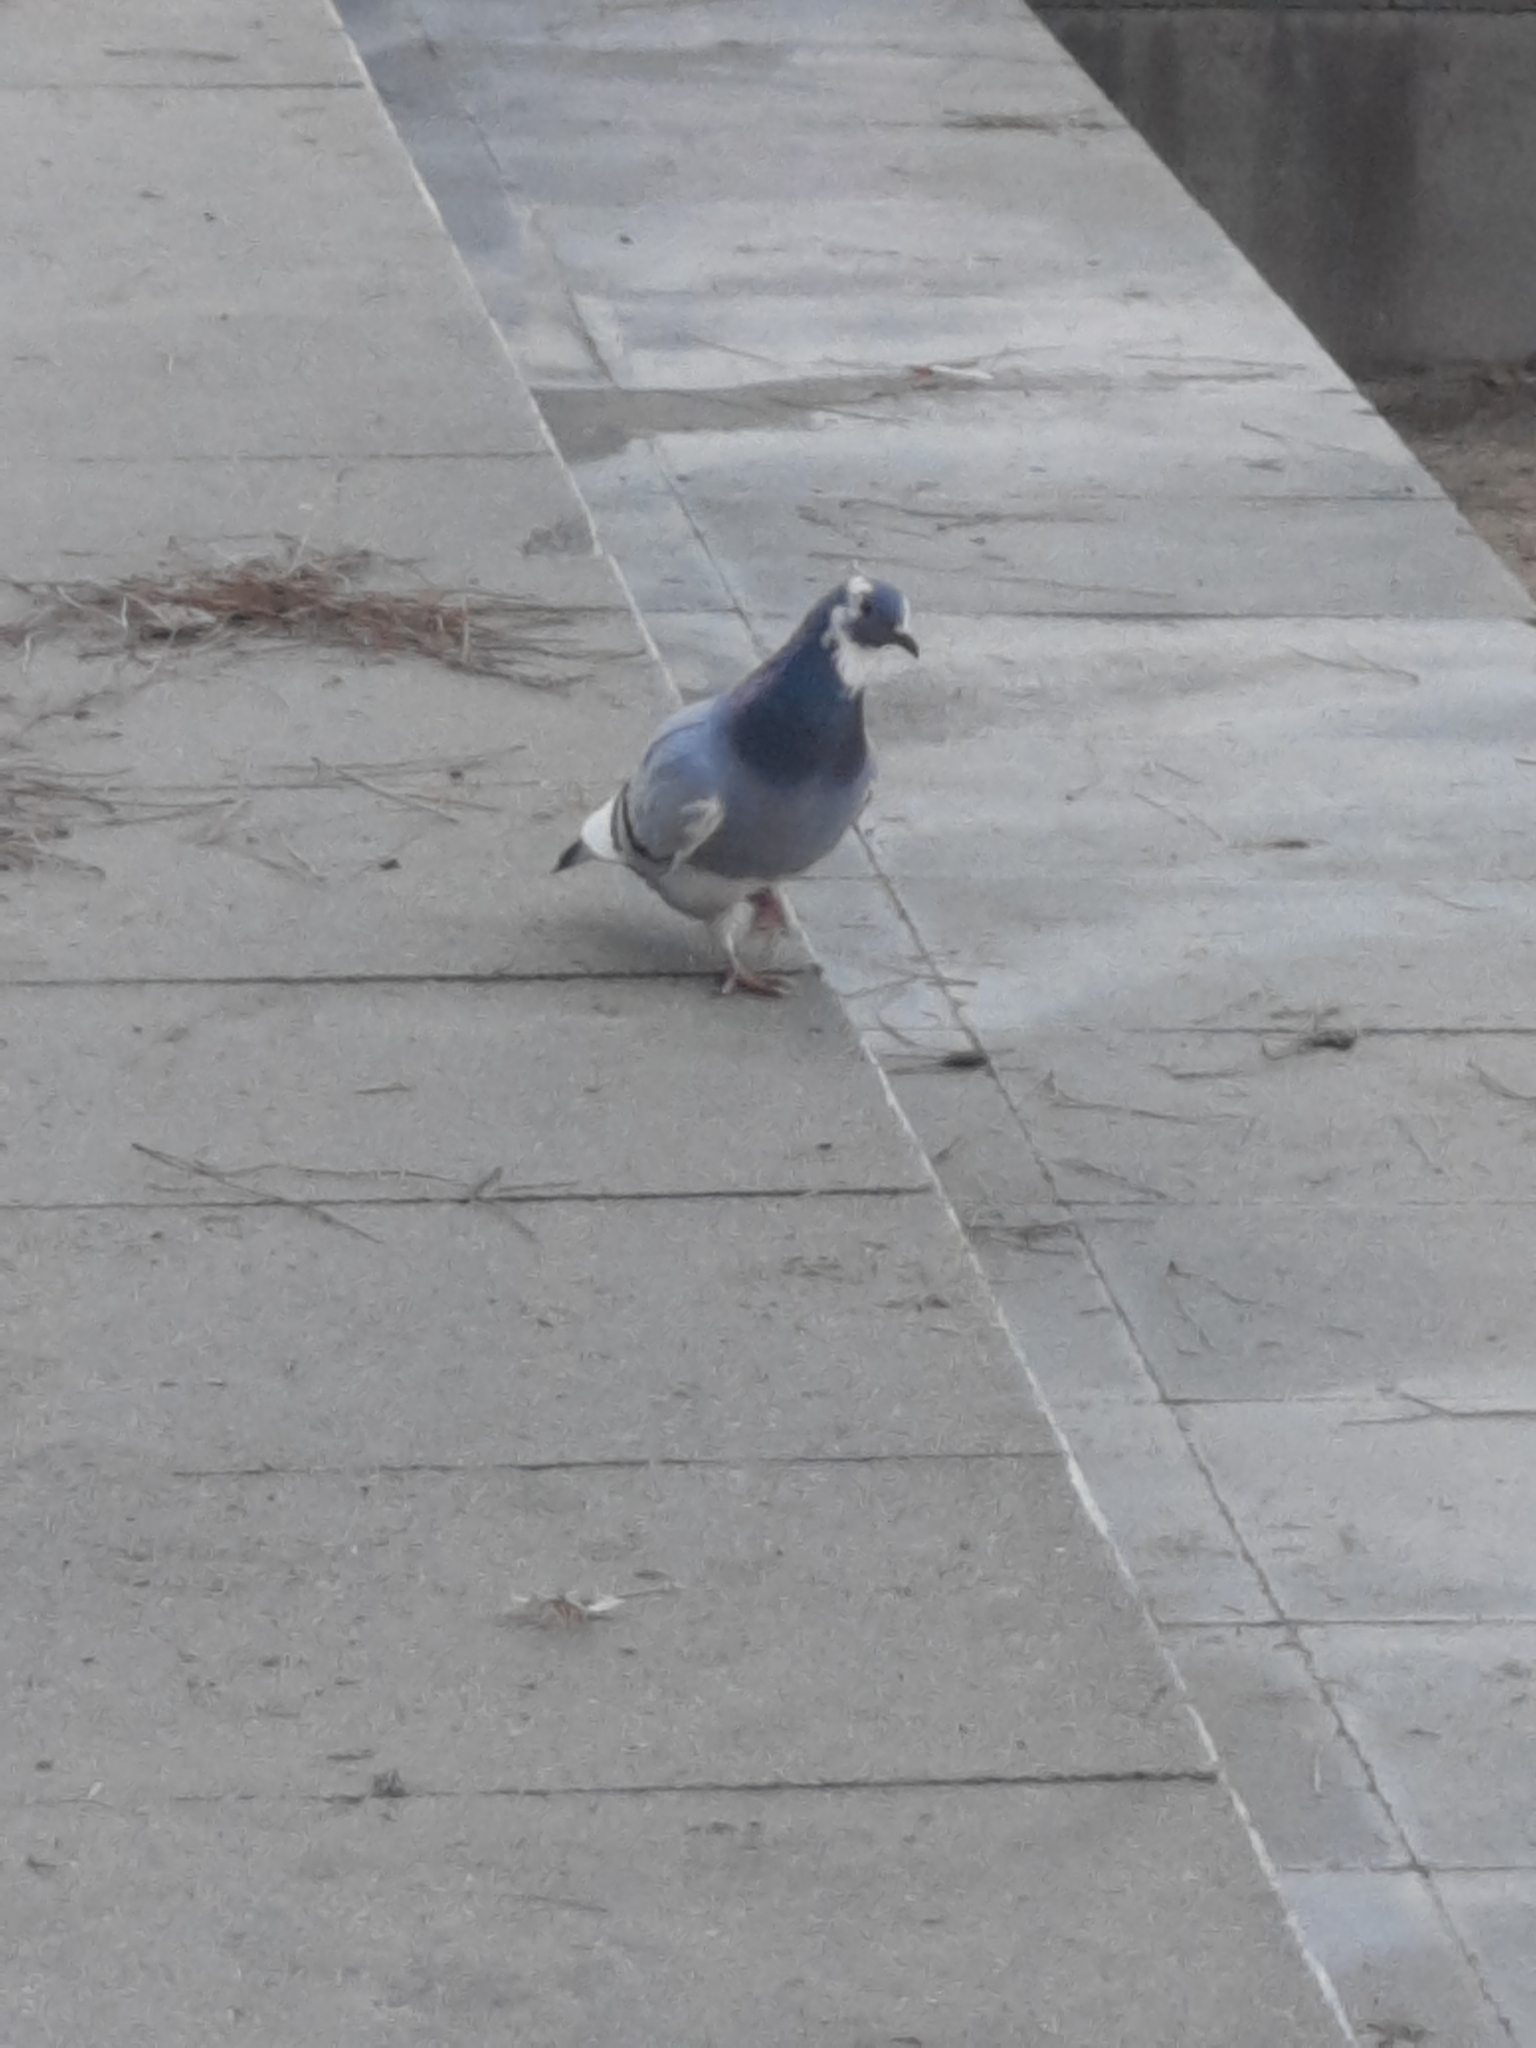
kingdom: Animalia
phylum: Chordata
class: Aves
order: Columbiformes
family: Columbidae
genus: Columba
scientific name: Columba livia
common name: Rock pigeon
